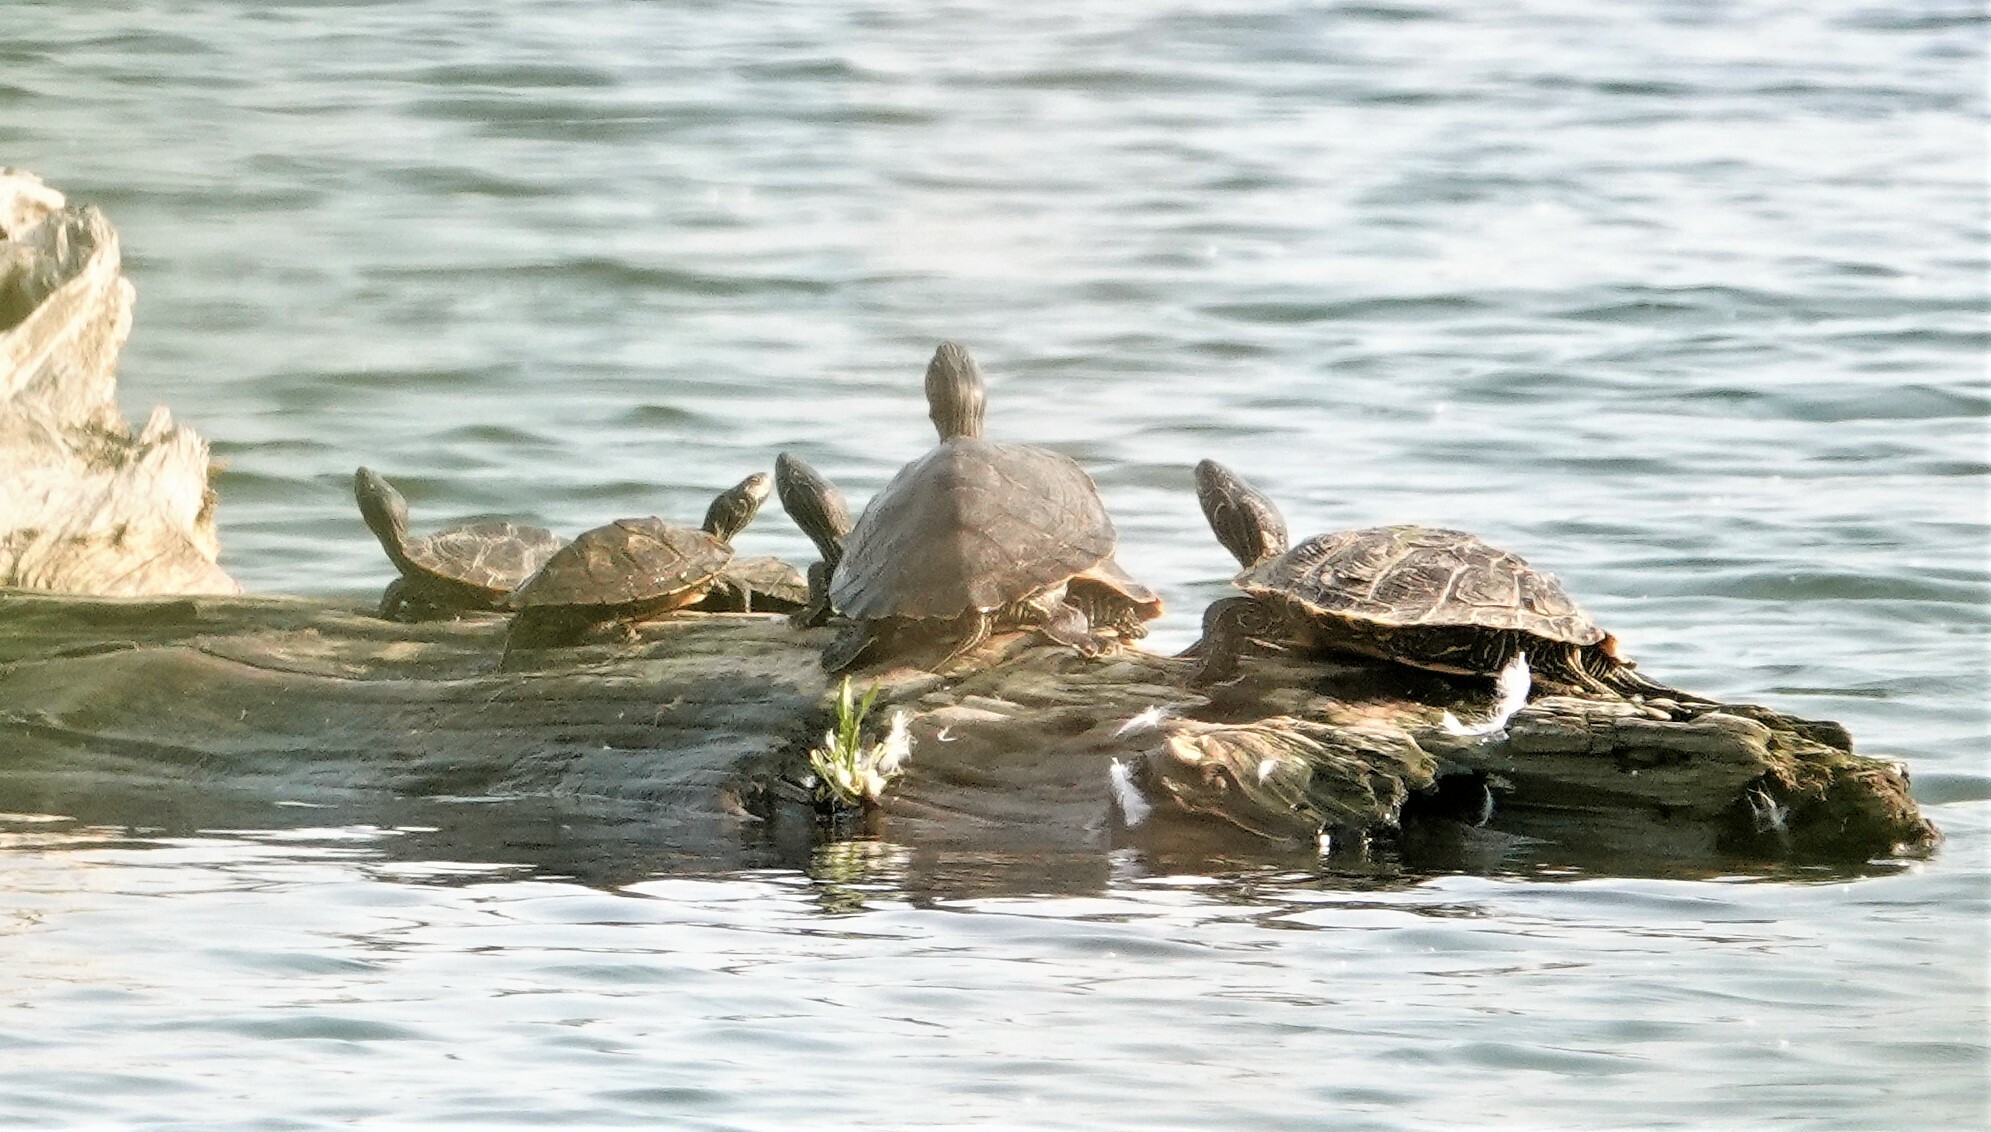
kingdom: Animalia
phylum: Chordata
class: Testudines
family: Emydidae
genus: Graptemys
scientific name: Graptemys geographica
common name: Common map turtle
